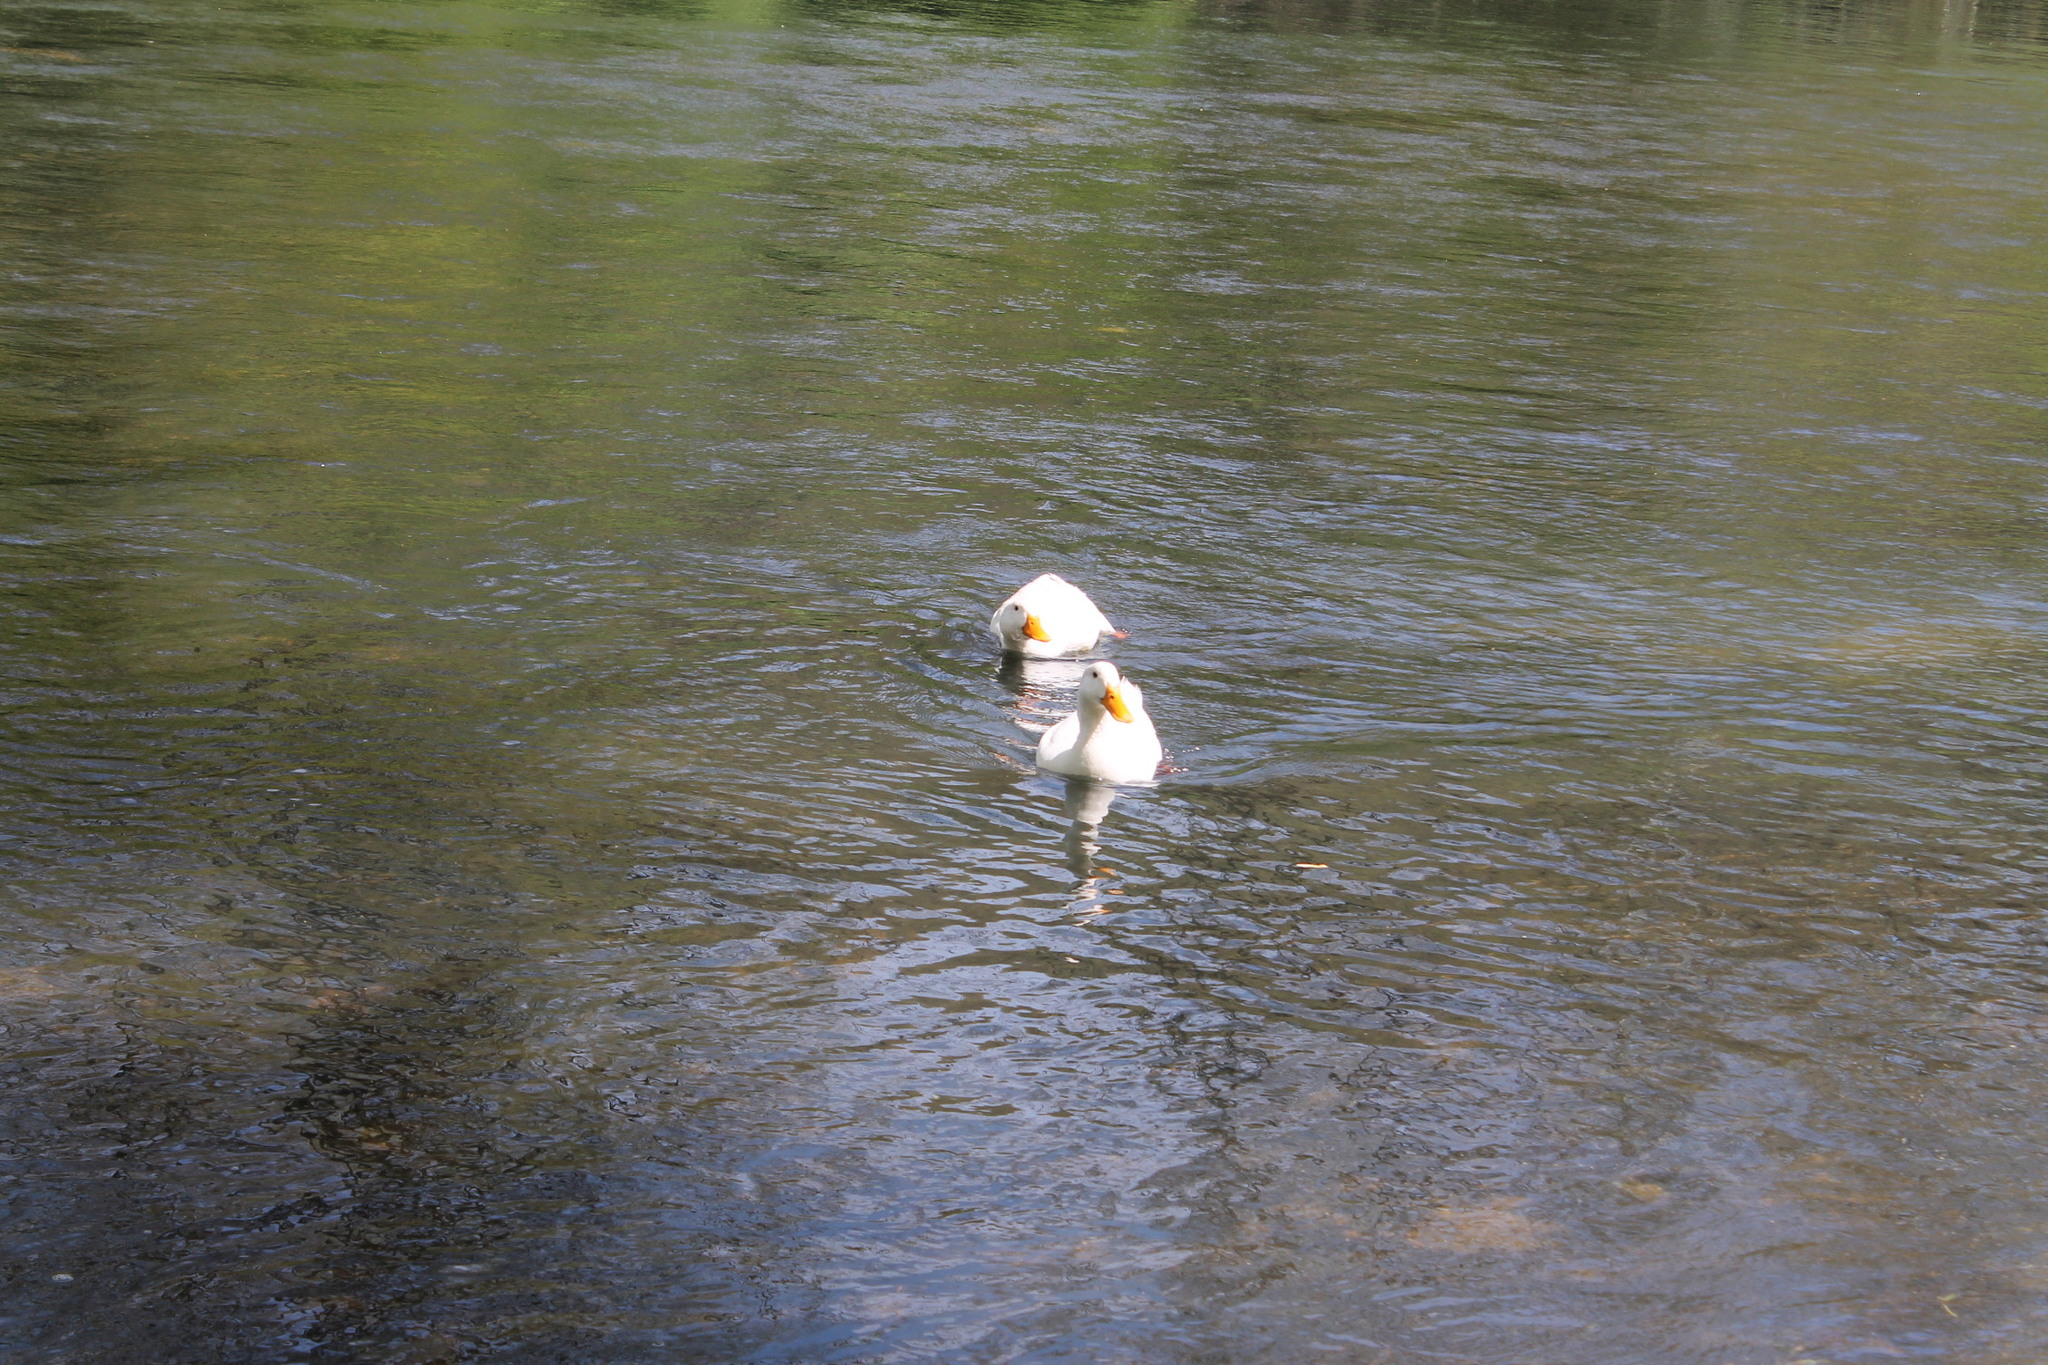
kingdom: Animalia
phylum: Chordata
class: Aves
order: Anseriformes
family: Anatidae
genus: Anas
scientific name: Anas platyrhynchos
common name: Mallard
